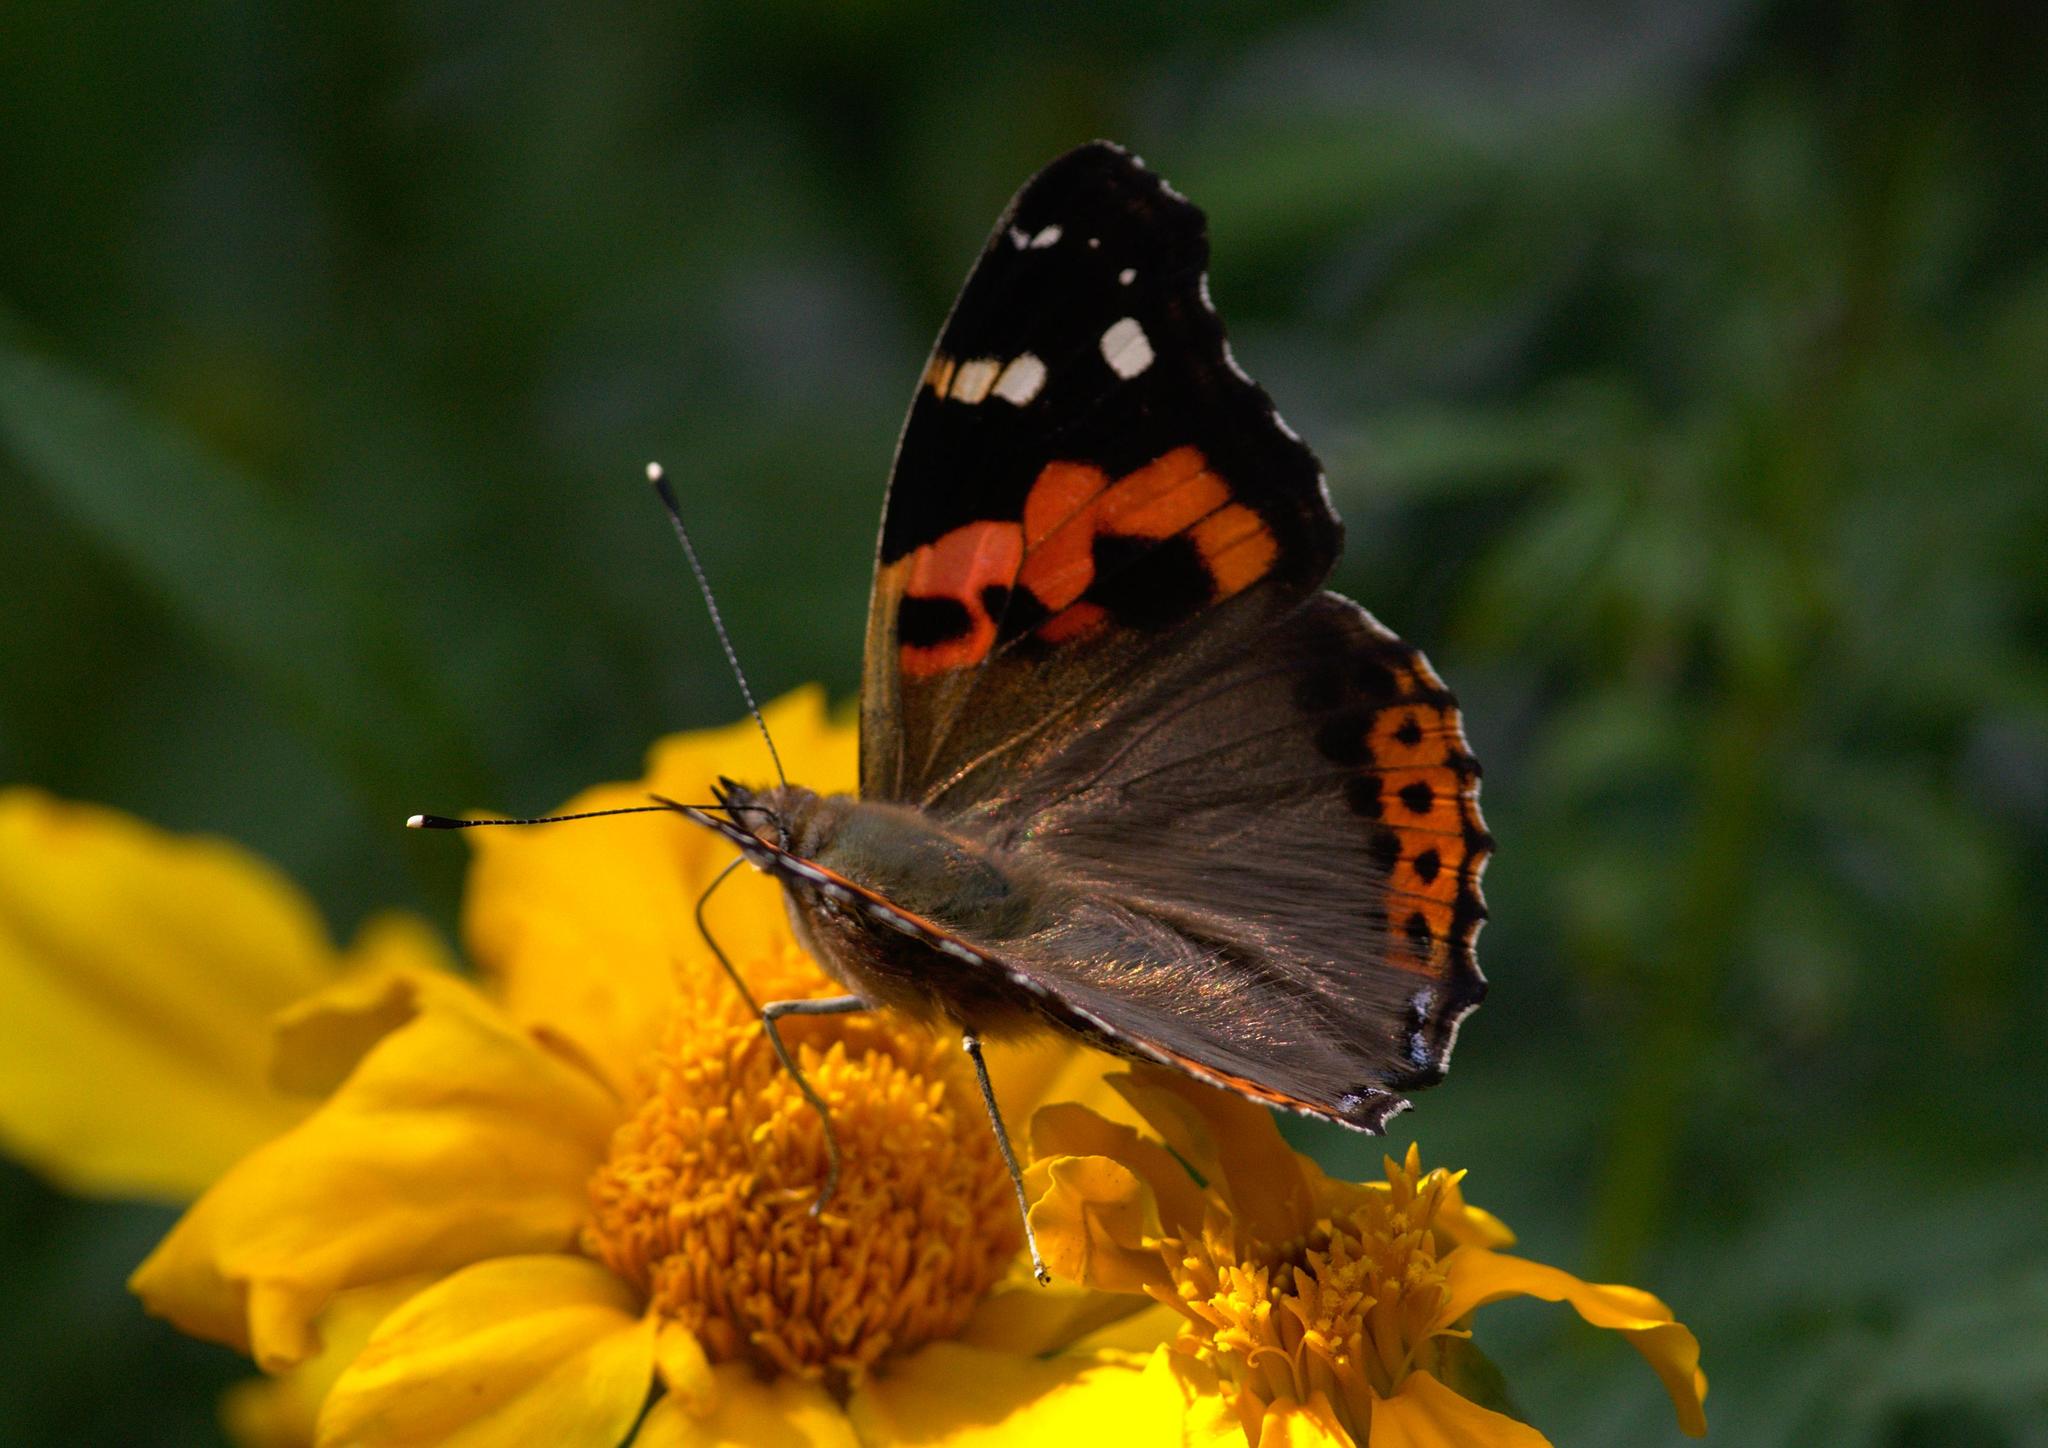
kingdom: Animalia
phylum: Arthropoda
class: Insecta
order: Lepidoptera
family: Nymphalidae
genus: Vanessa
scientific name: Vanessa indica
